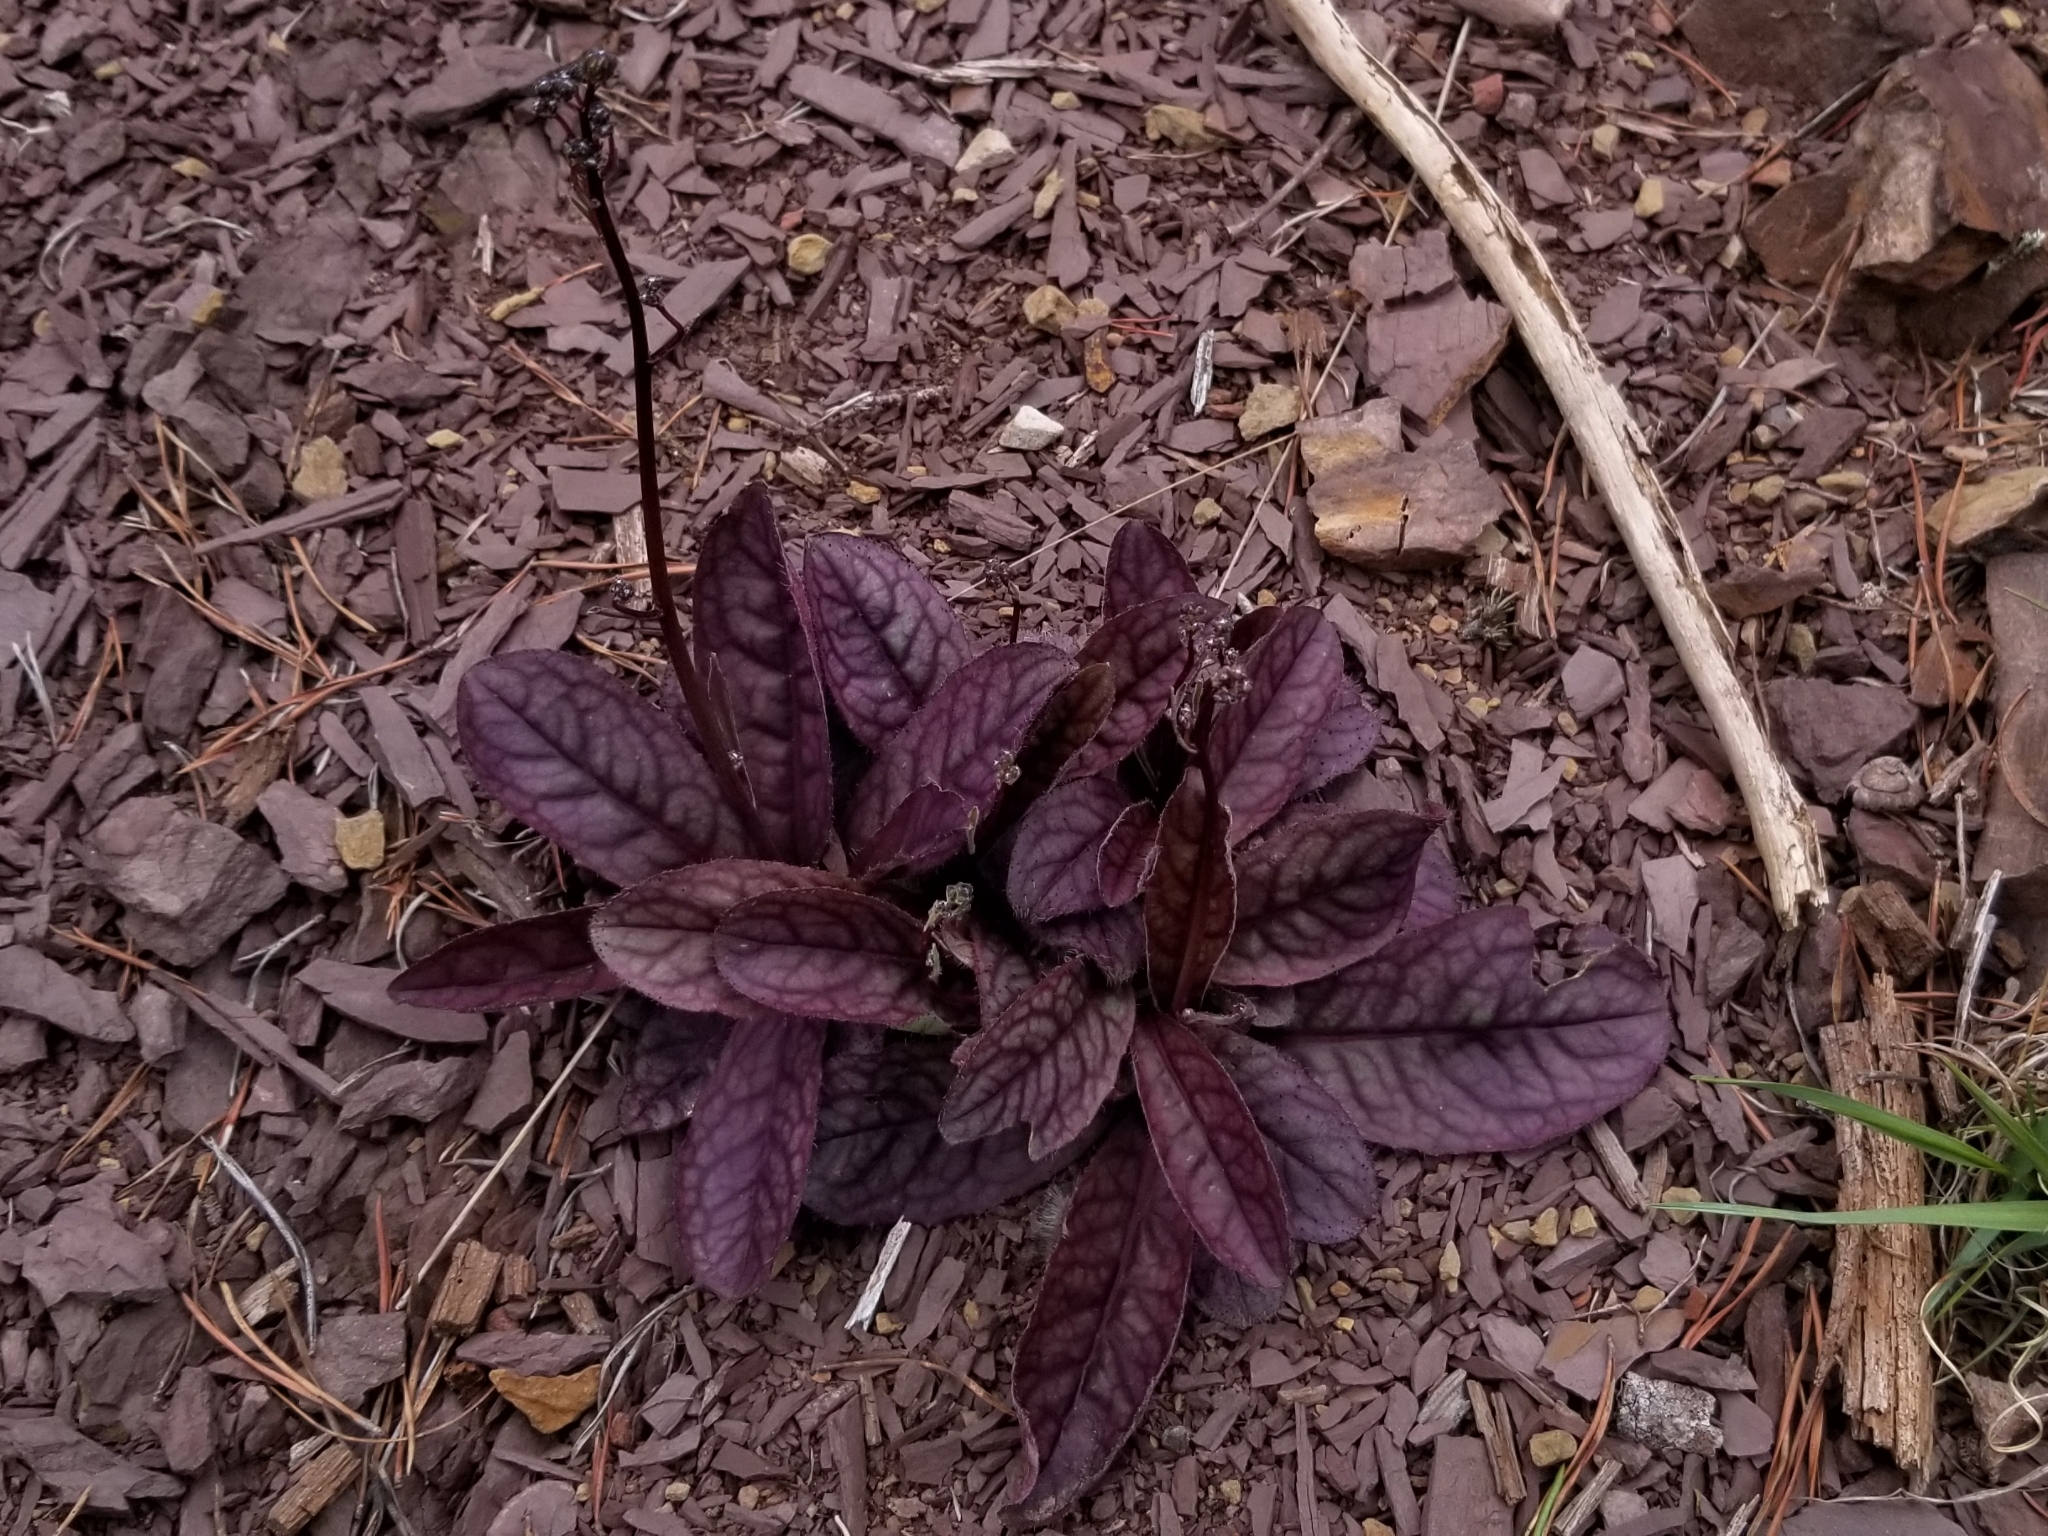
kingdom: Plantae
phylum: Tracheophyta
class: Magnoliopsida
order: Asterales
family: Asteraceae
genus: Hieracium
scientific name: Hieracium venosum
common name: Rattlesnake hawkweed
